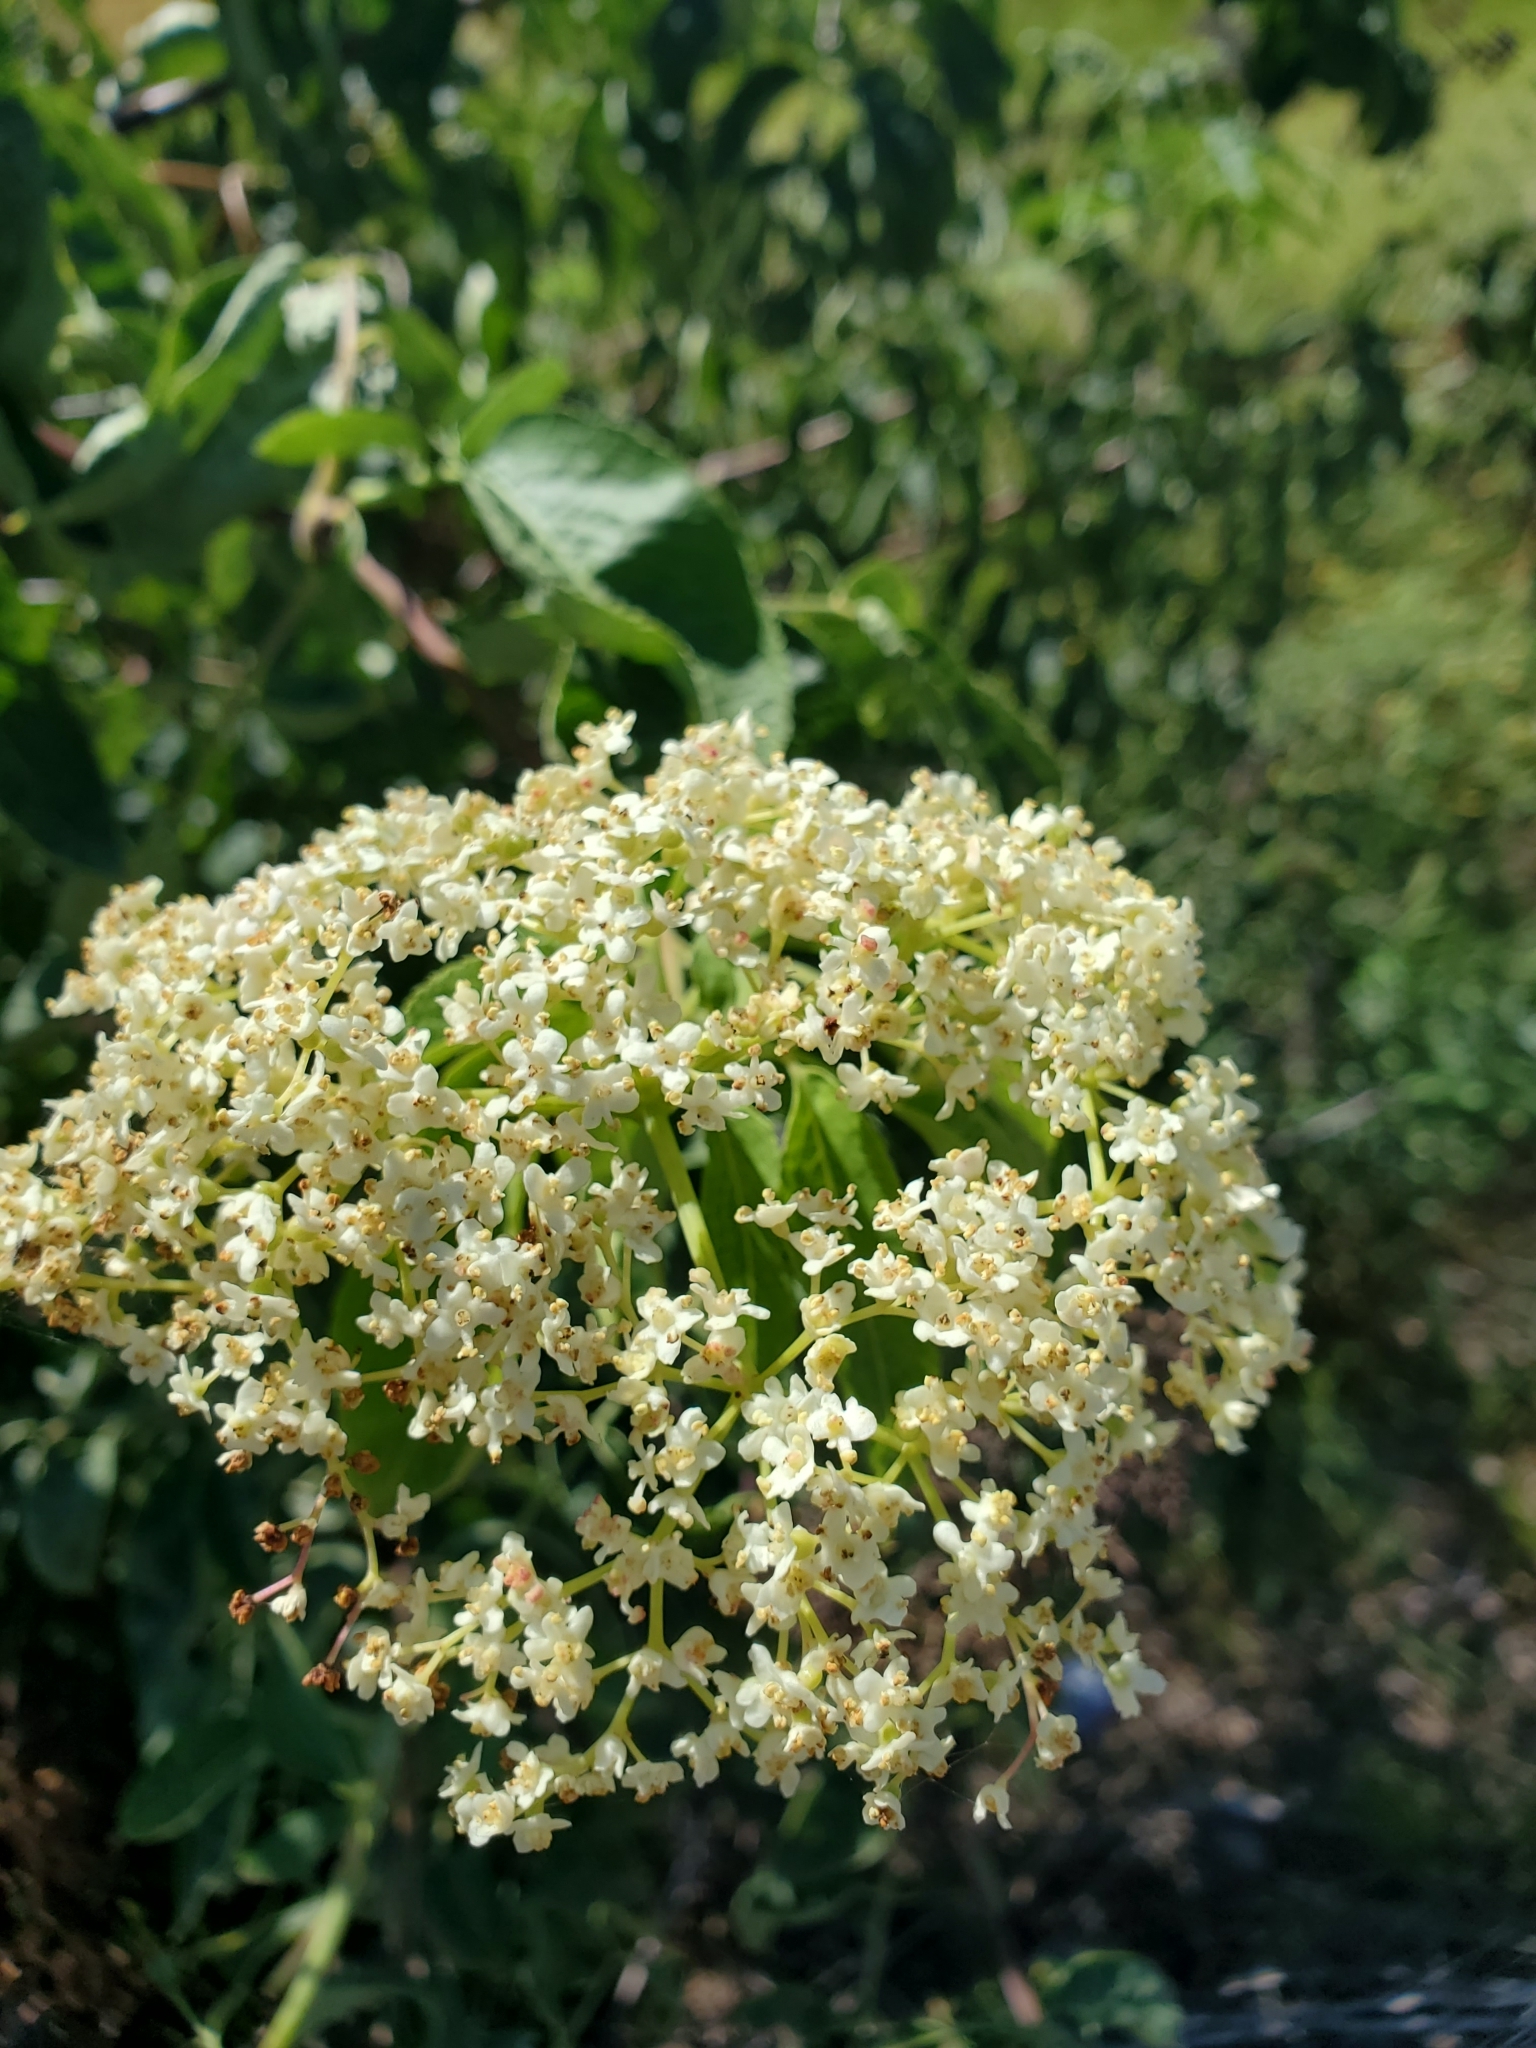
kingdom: Plantae
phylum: Tracheophyta
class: Magnoliopsida
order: Dipsacales
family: Viburnaceae
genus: Sambucus
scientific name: Sambucus cerulea
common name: Blue elder
